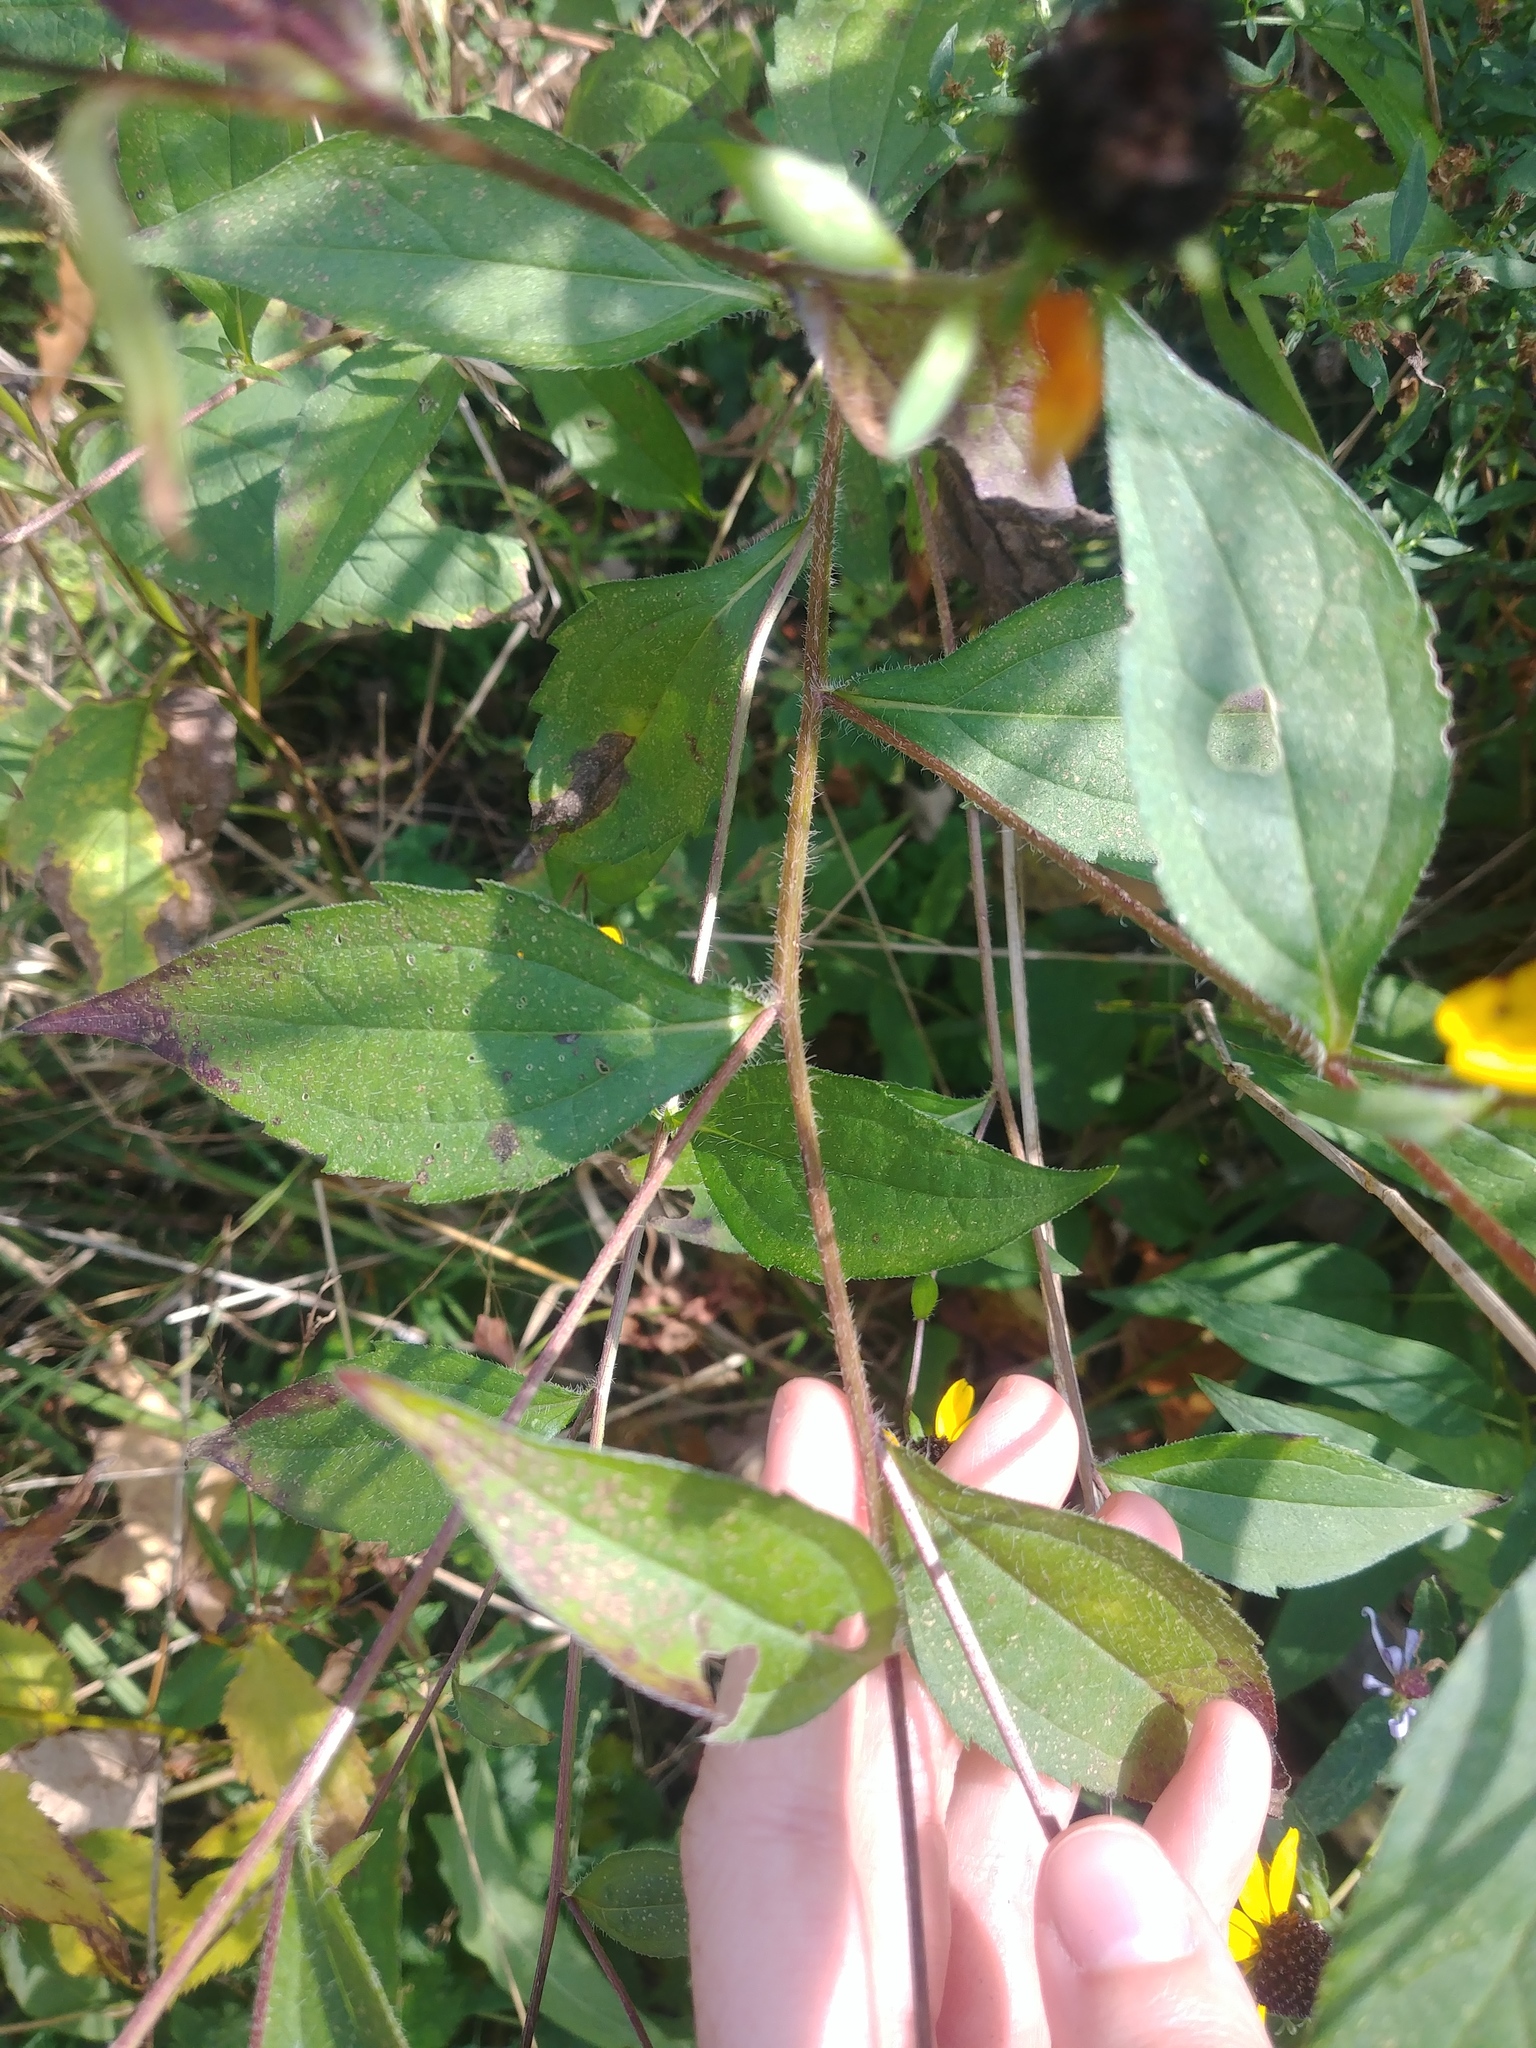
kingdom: Plantae
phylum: Tracheophyta
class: Magnoliopsida
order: Asterales
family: Asteraceae
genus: Rudbeckia
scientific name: Rudbeckia triloba
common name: Thin-leaved coneflower
